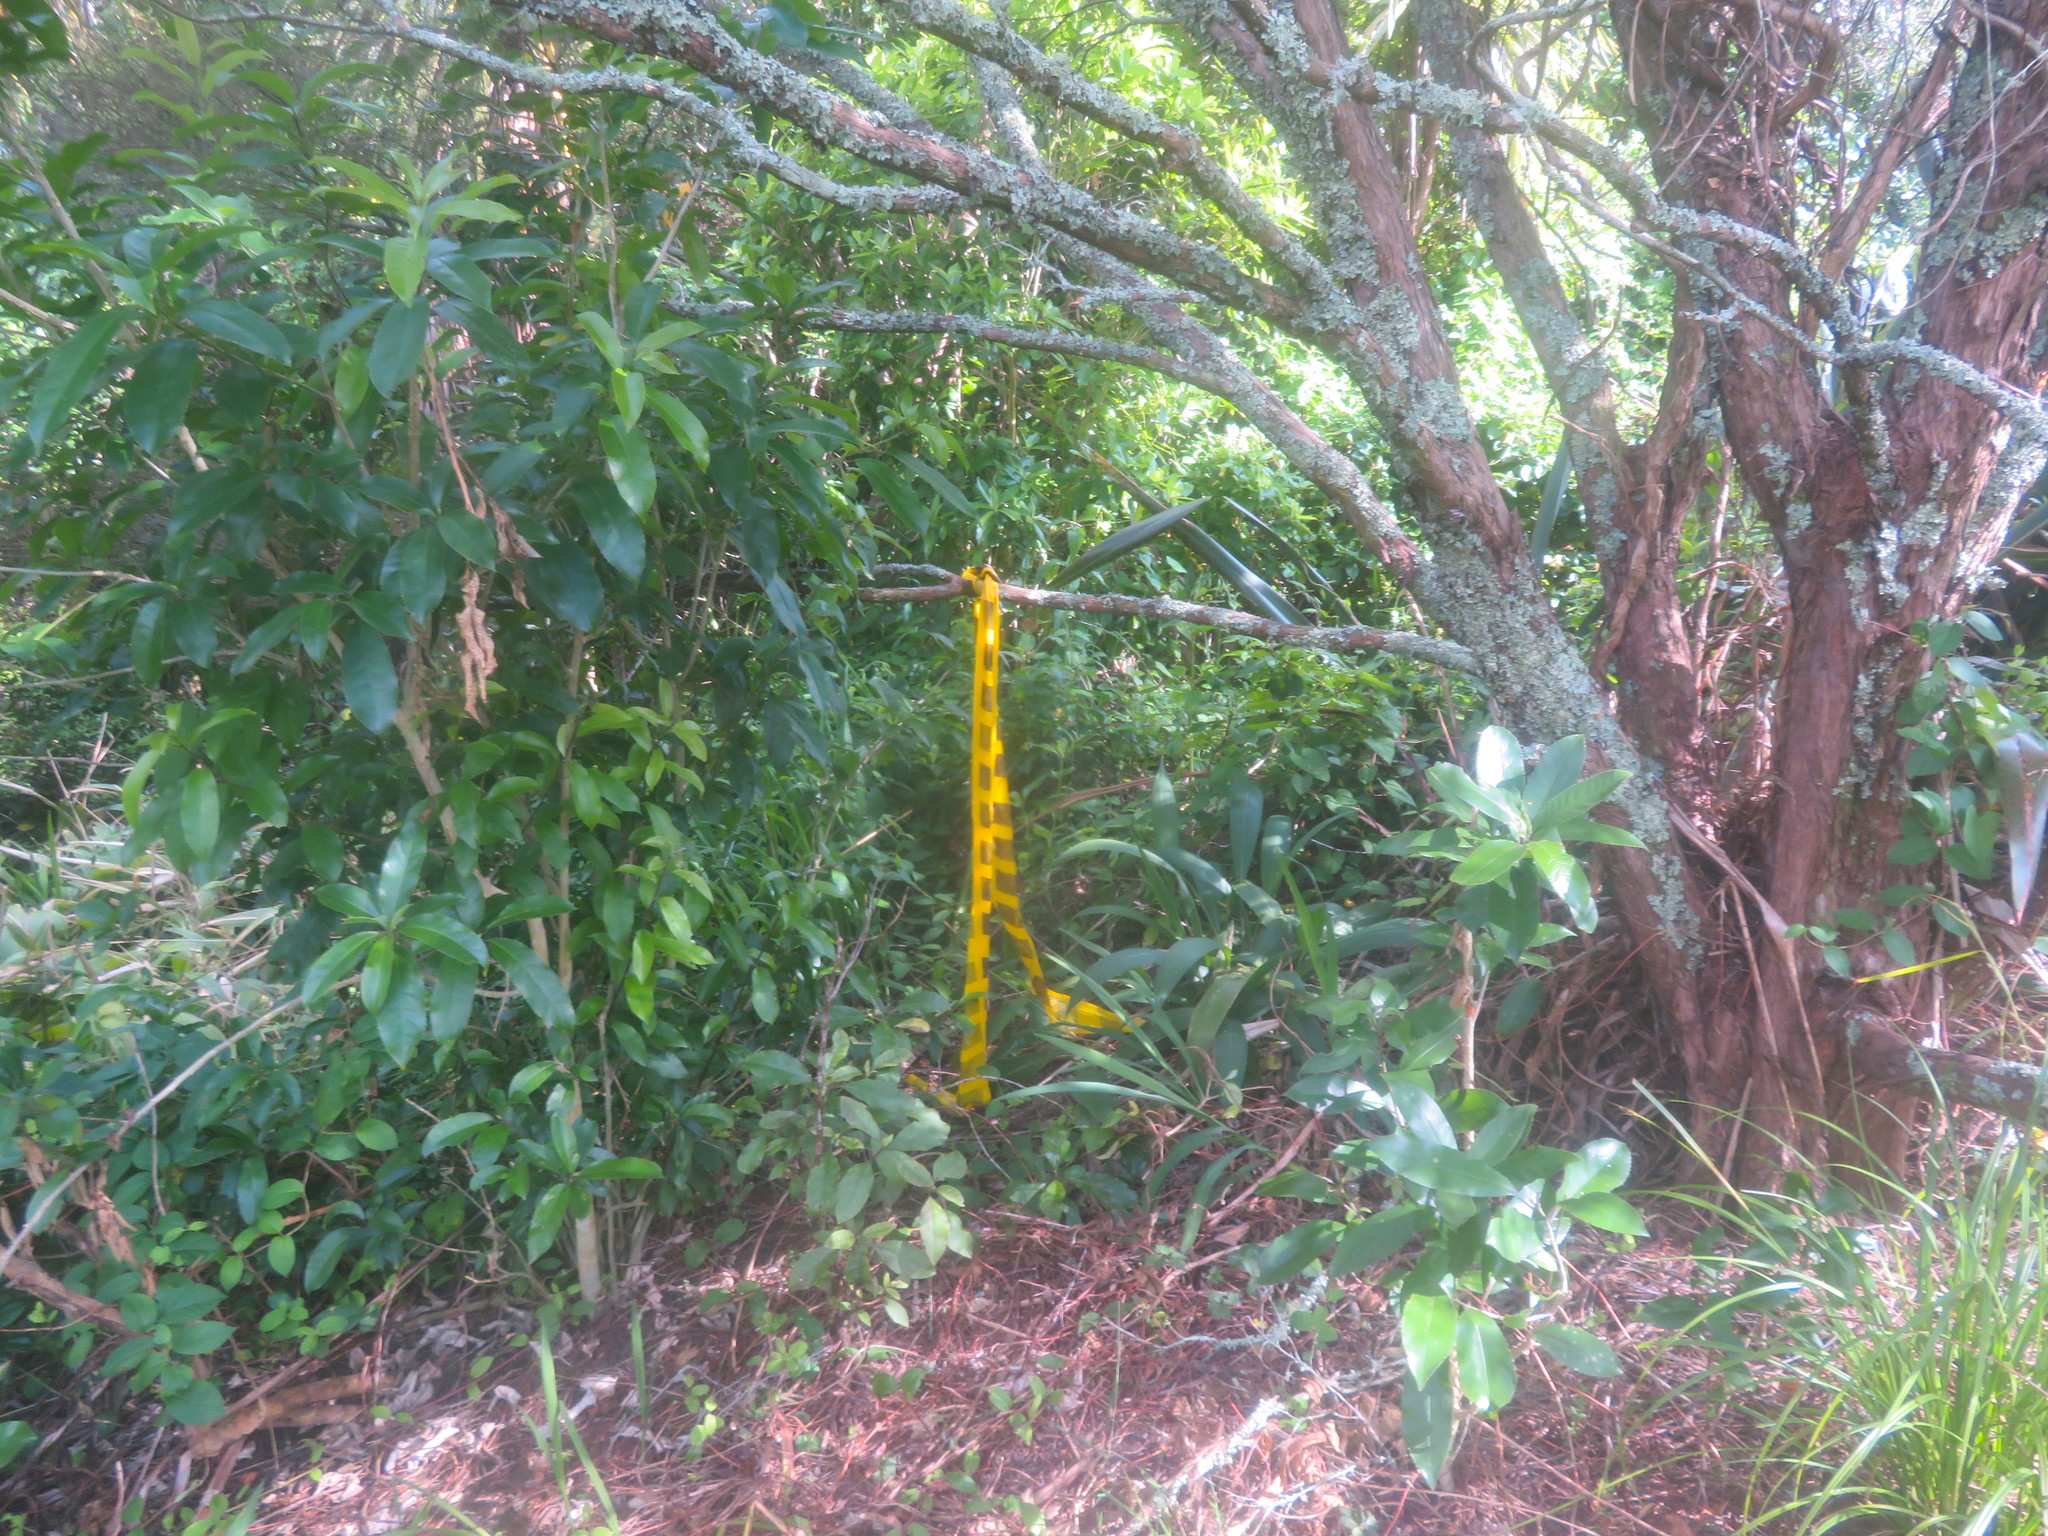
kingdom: Plantae
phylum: Tracheophyta
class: Magnoliopsida
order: Malpighiales
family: Violaceae
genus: Melicytus
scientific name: Melicytus ramiflorus
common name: Mahoe
